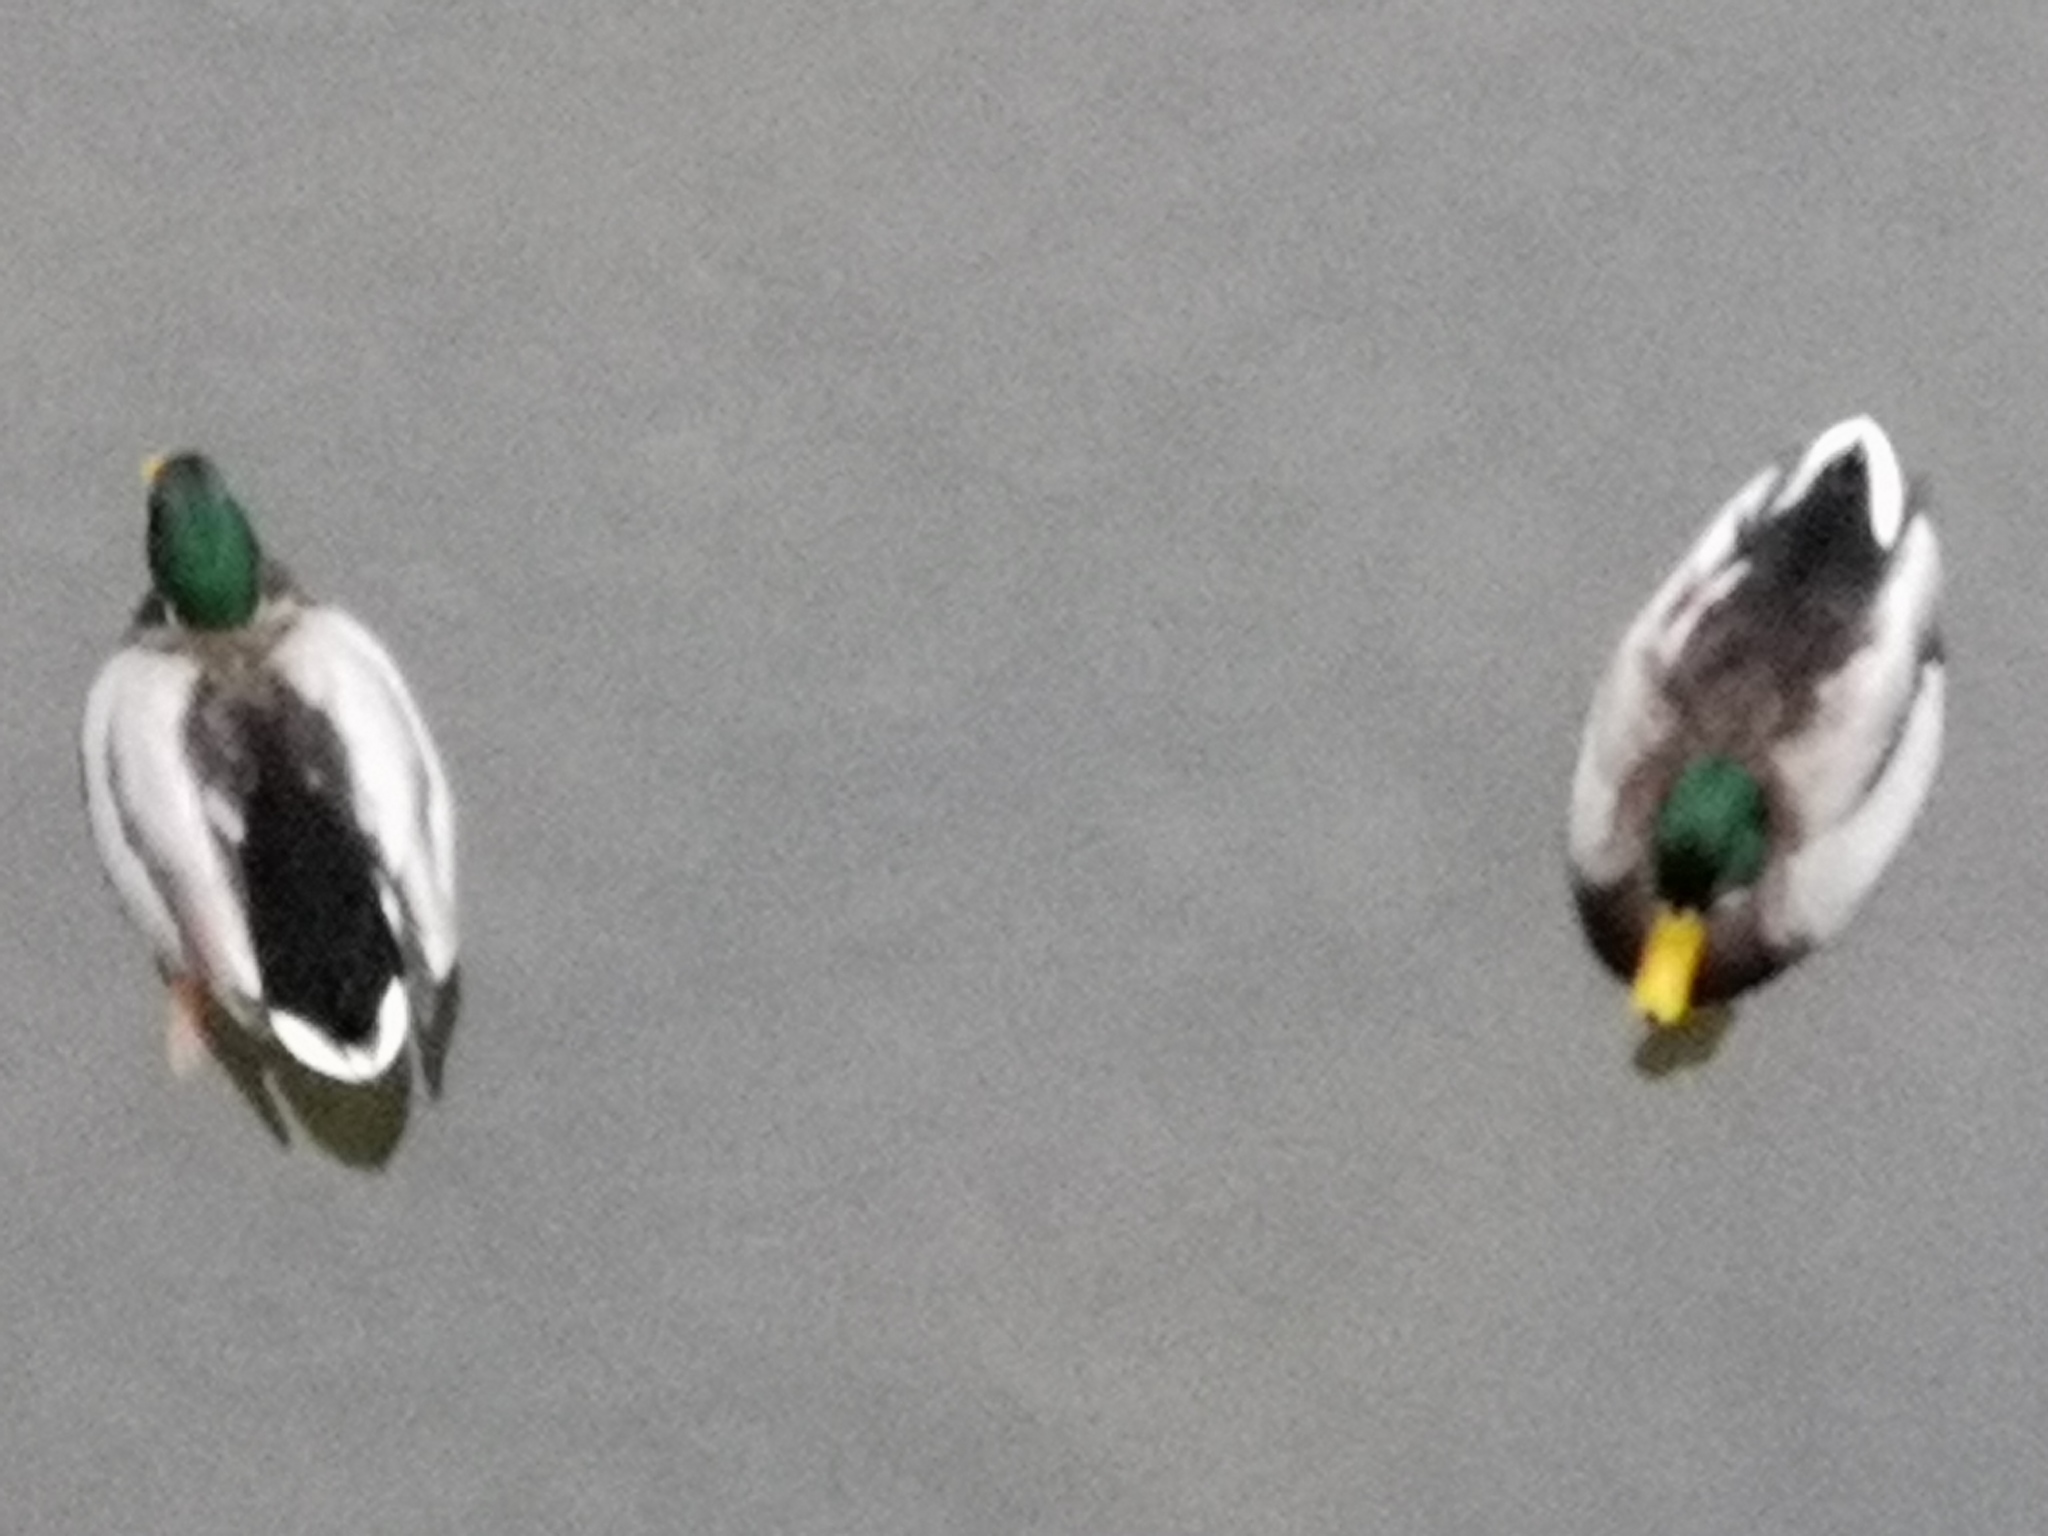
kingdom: Animalia
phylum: Chordata
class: Aves
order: Anseriformes
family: Anatidae
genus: Anas
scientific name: Anas platyrhynchos
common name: Mallard
